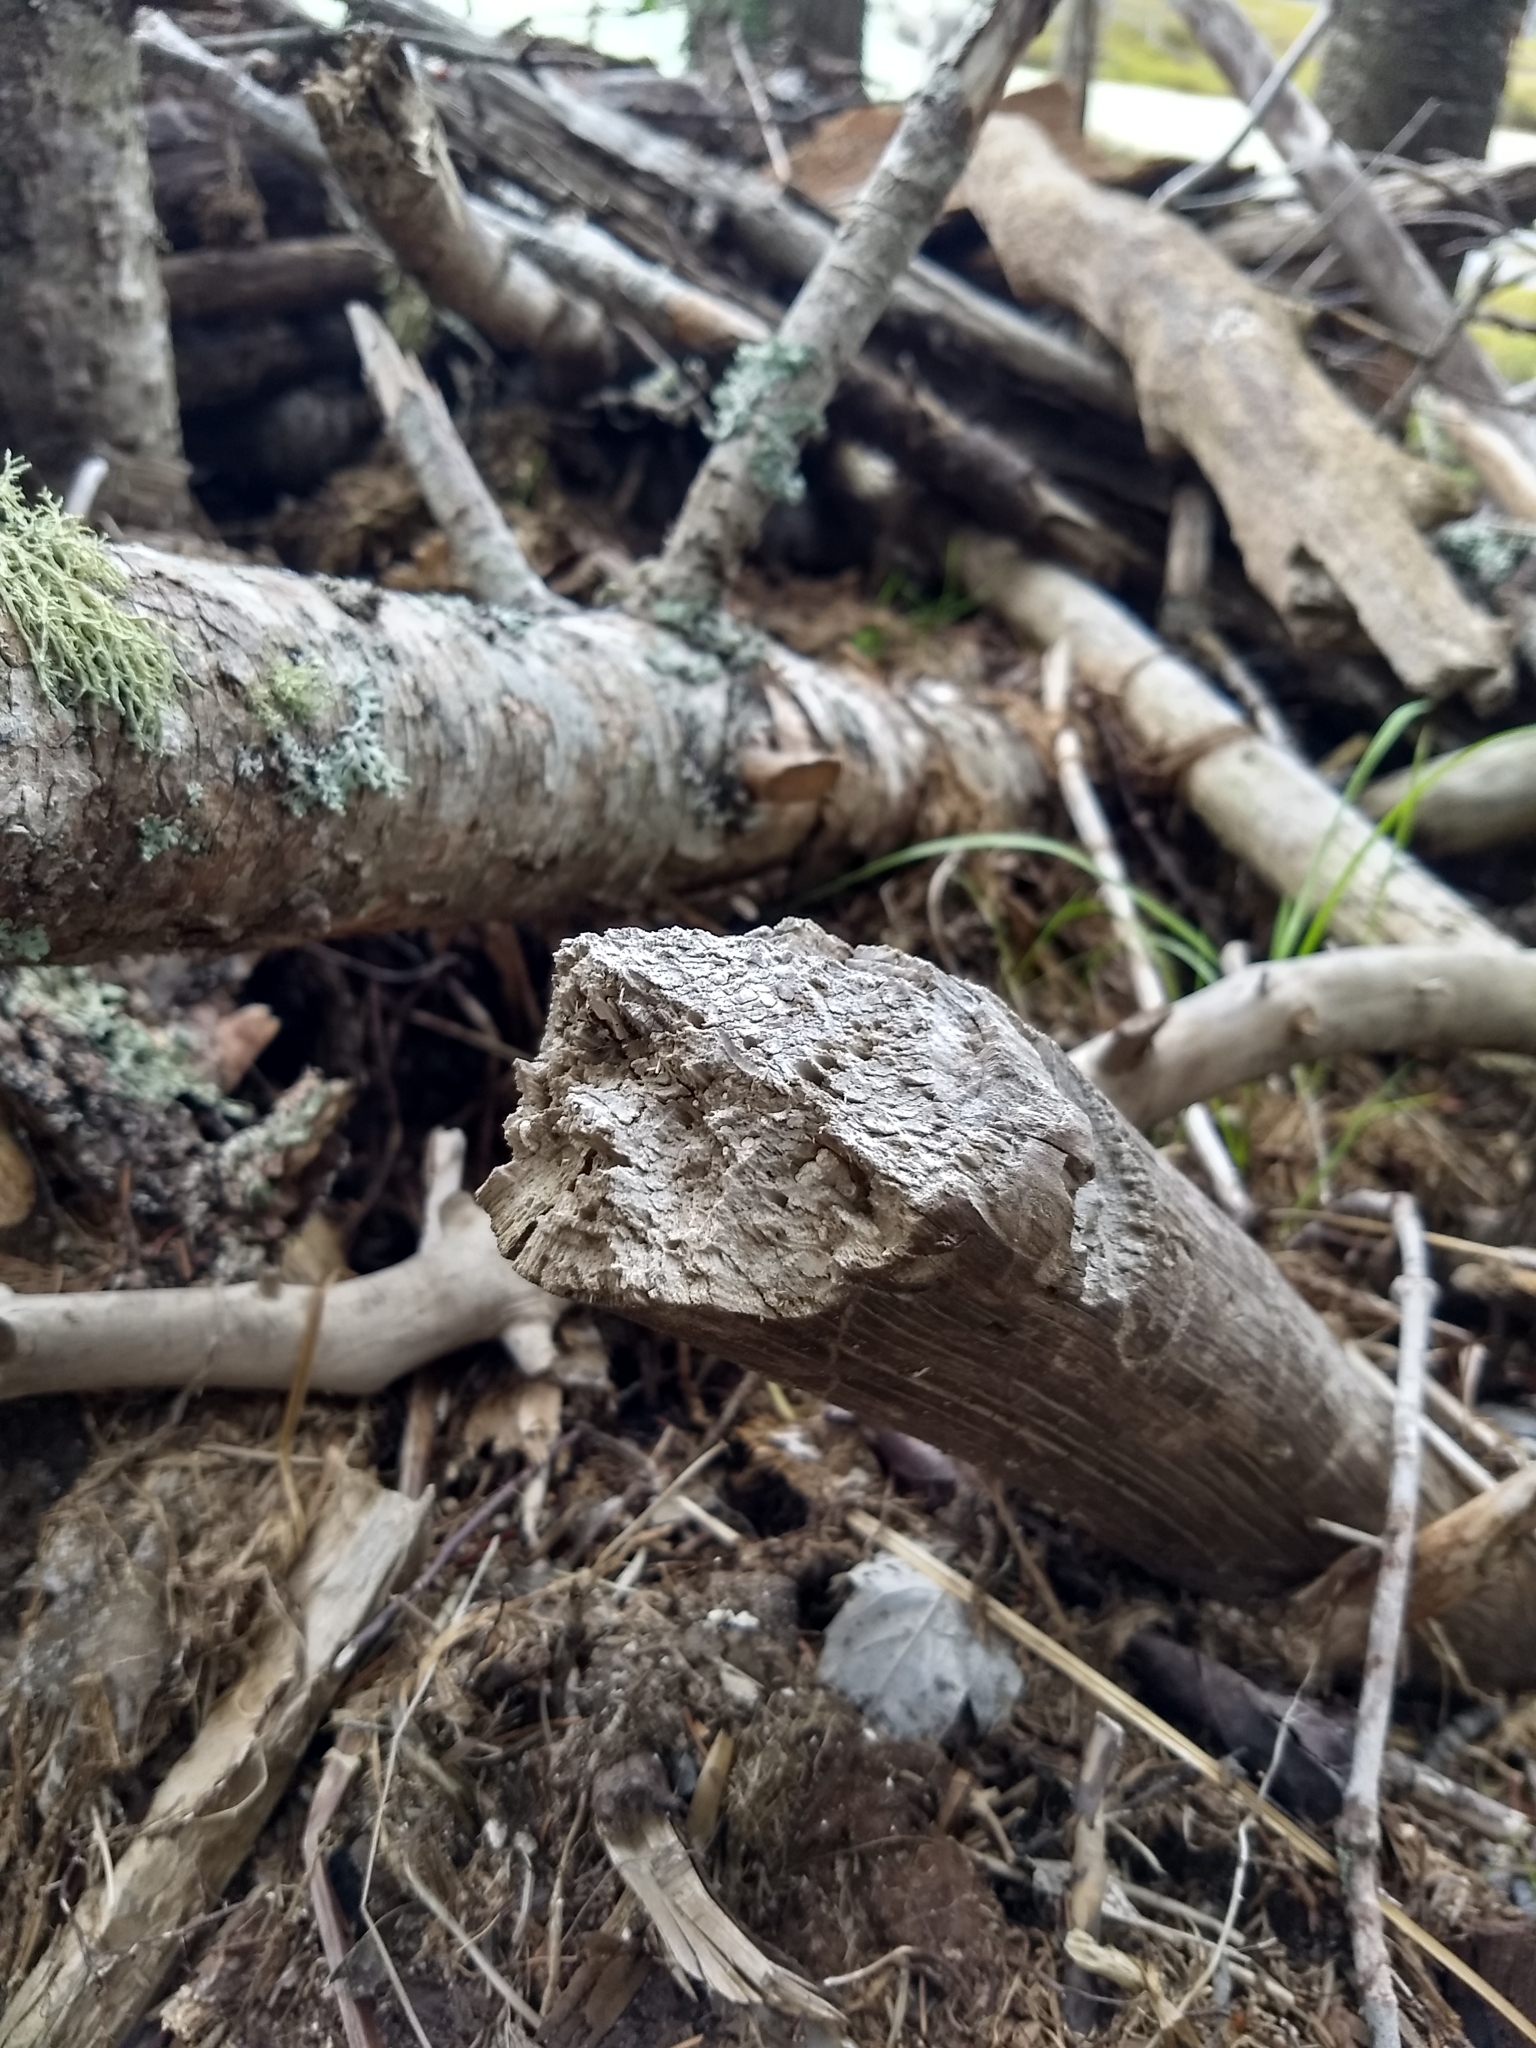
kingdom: Animalia
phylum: Chordata
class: Mammalia
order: Rodentia
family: Castoridae
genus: Castor
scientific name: Castor canadensis
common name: American beaver
